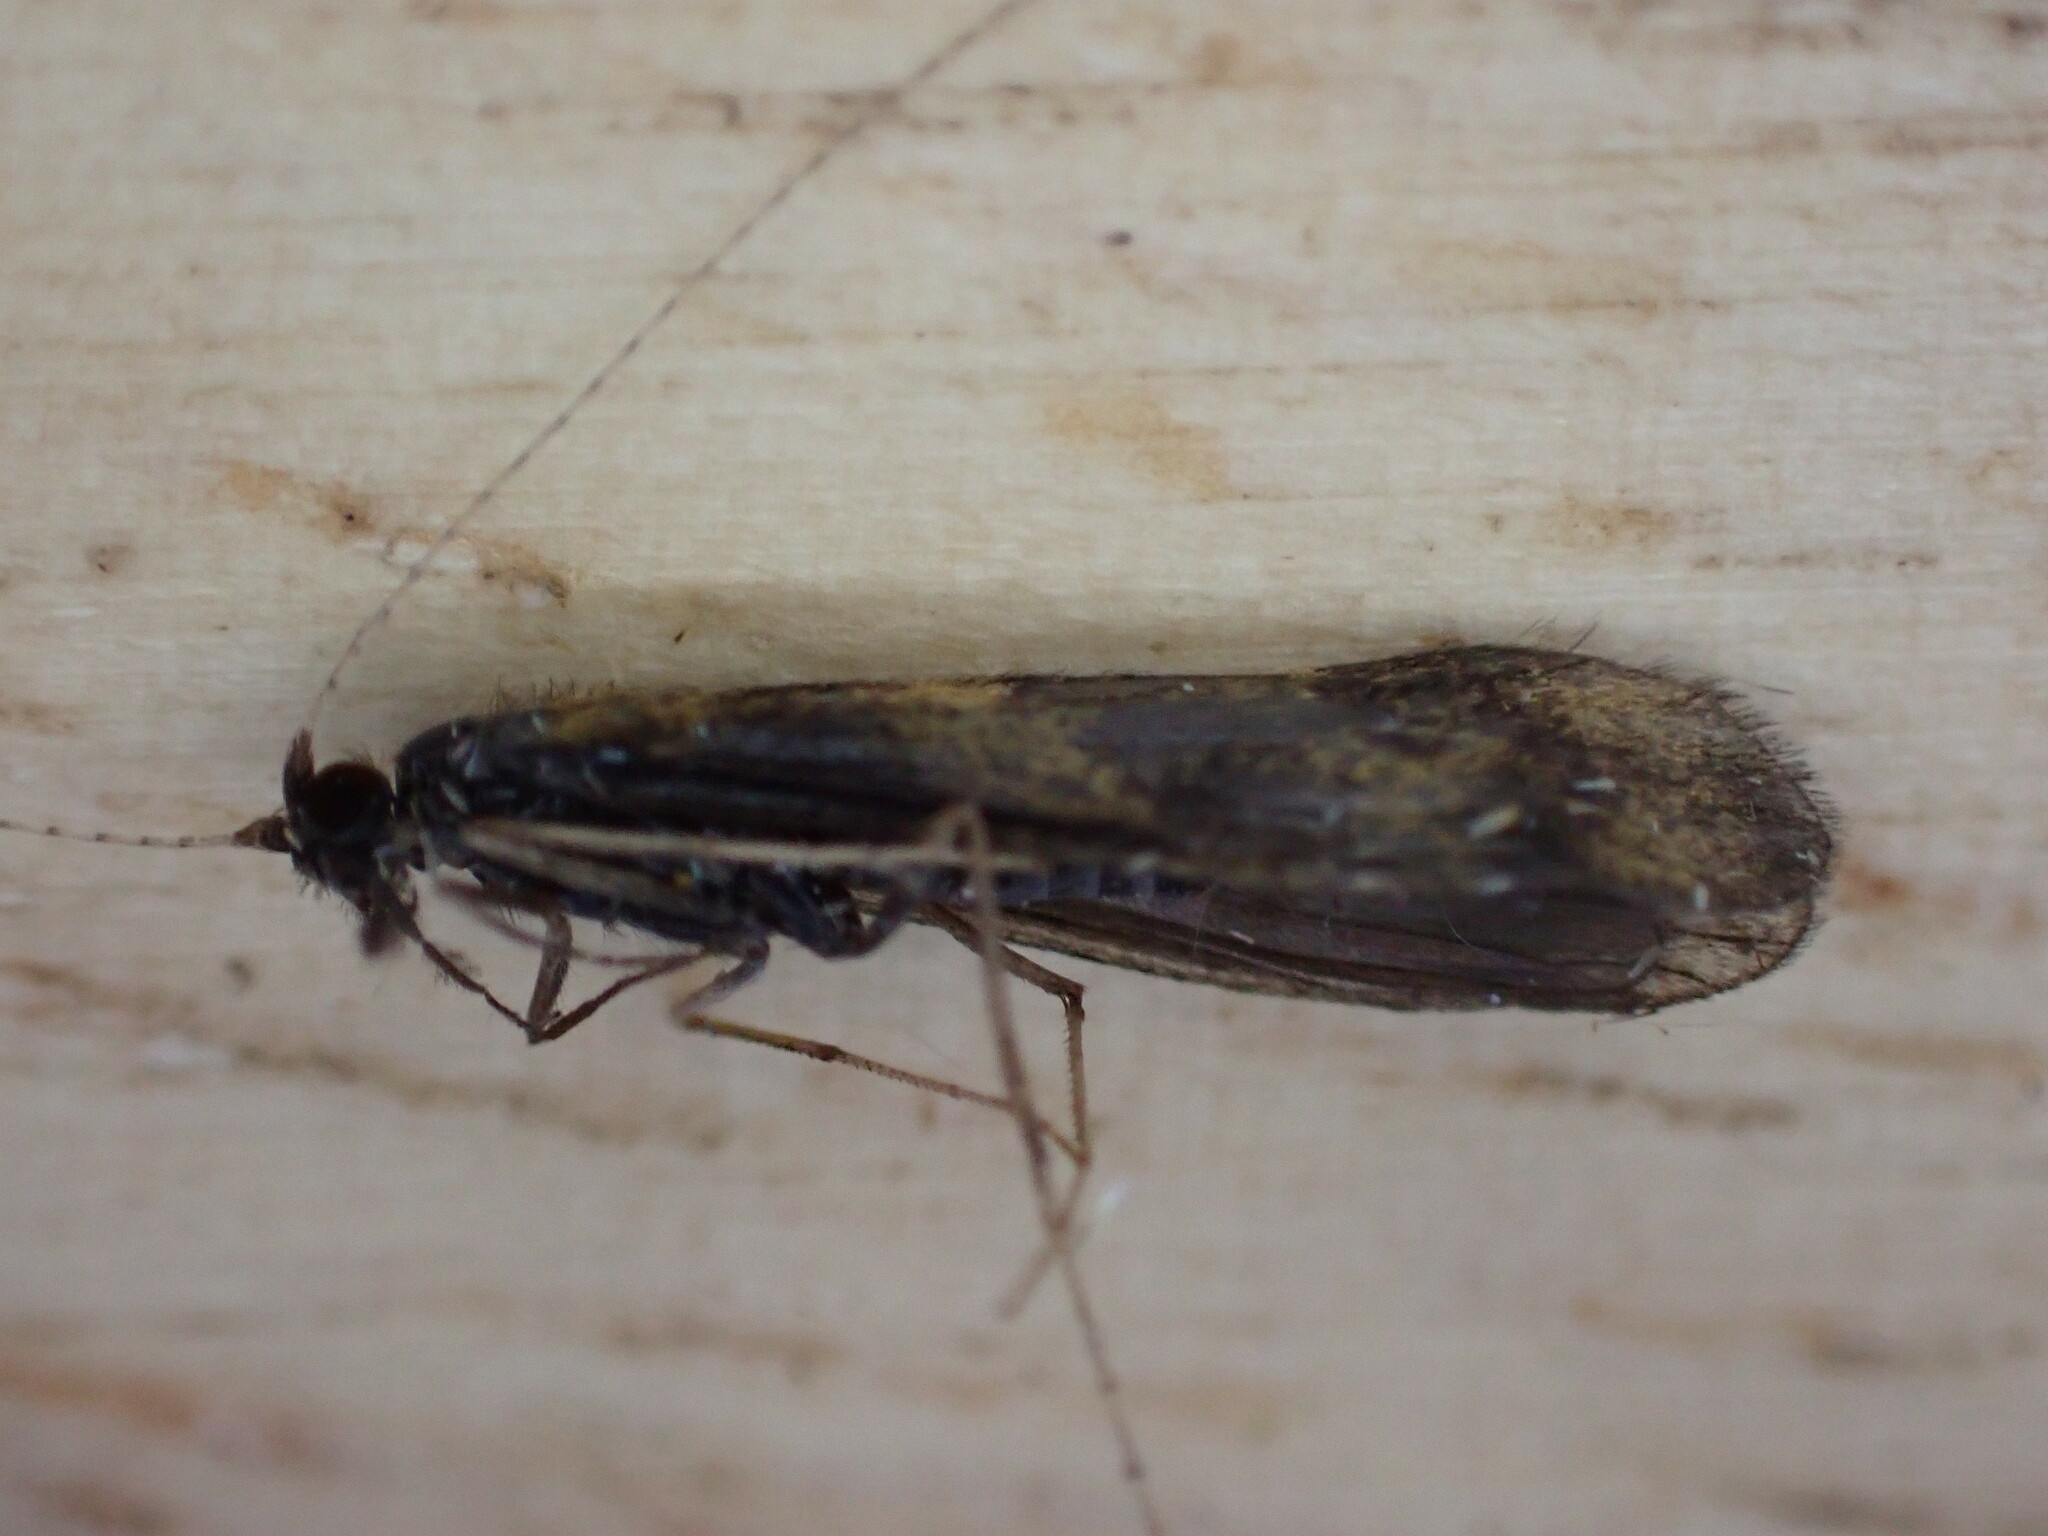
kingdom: Animalia
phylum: Arthropoda
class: Insecta
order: Trichoptera
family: Leptoceridae
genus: Mystacides
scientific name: Mystacides longicornis
